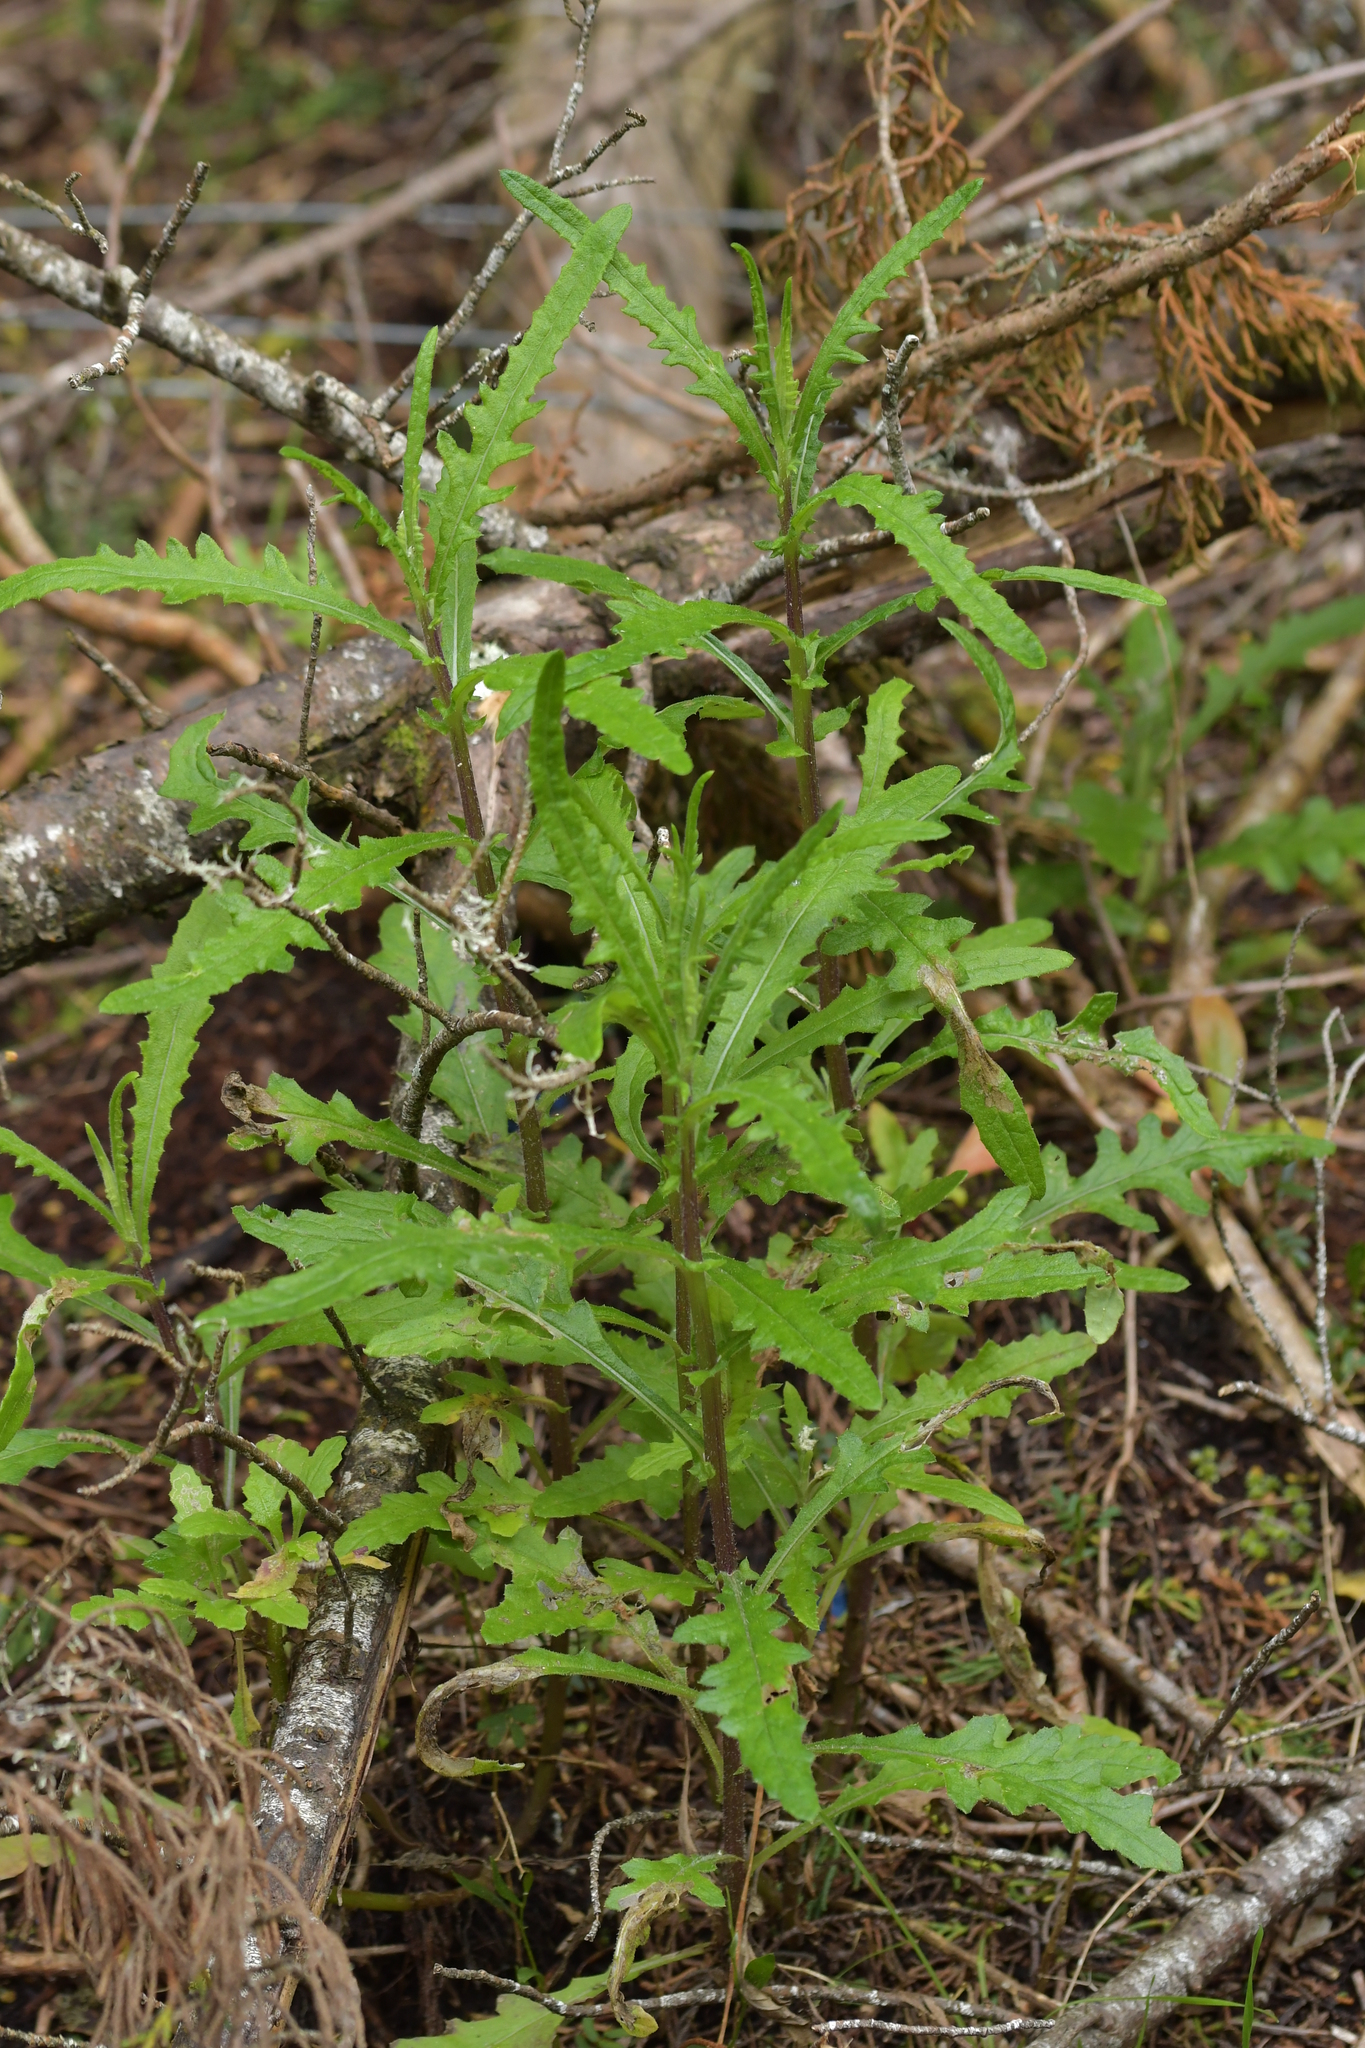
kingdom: Plantae
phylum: Tracheophyta
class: Magnoliopsida
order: Asterales
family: Asteraceae
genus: Senecio
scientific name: Senecio hispidulus
